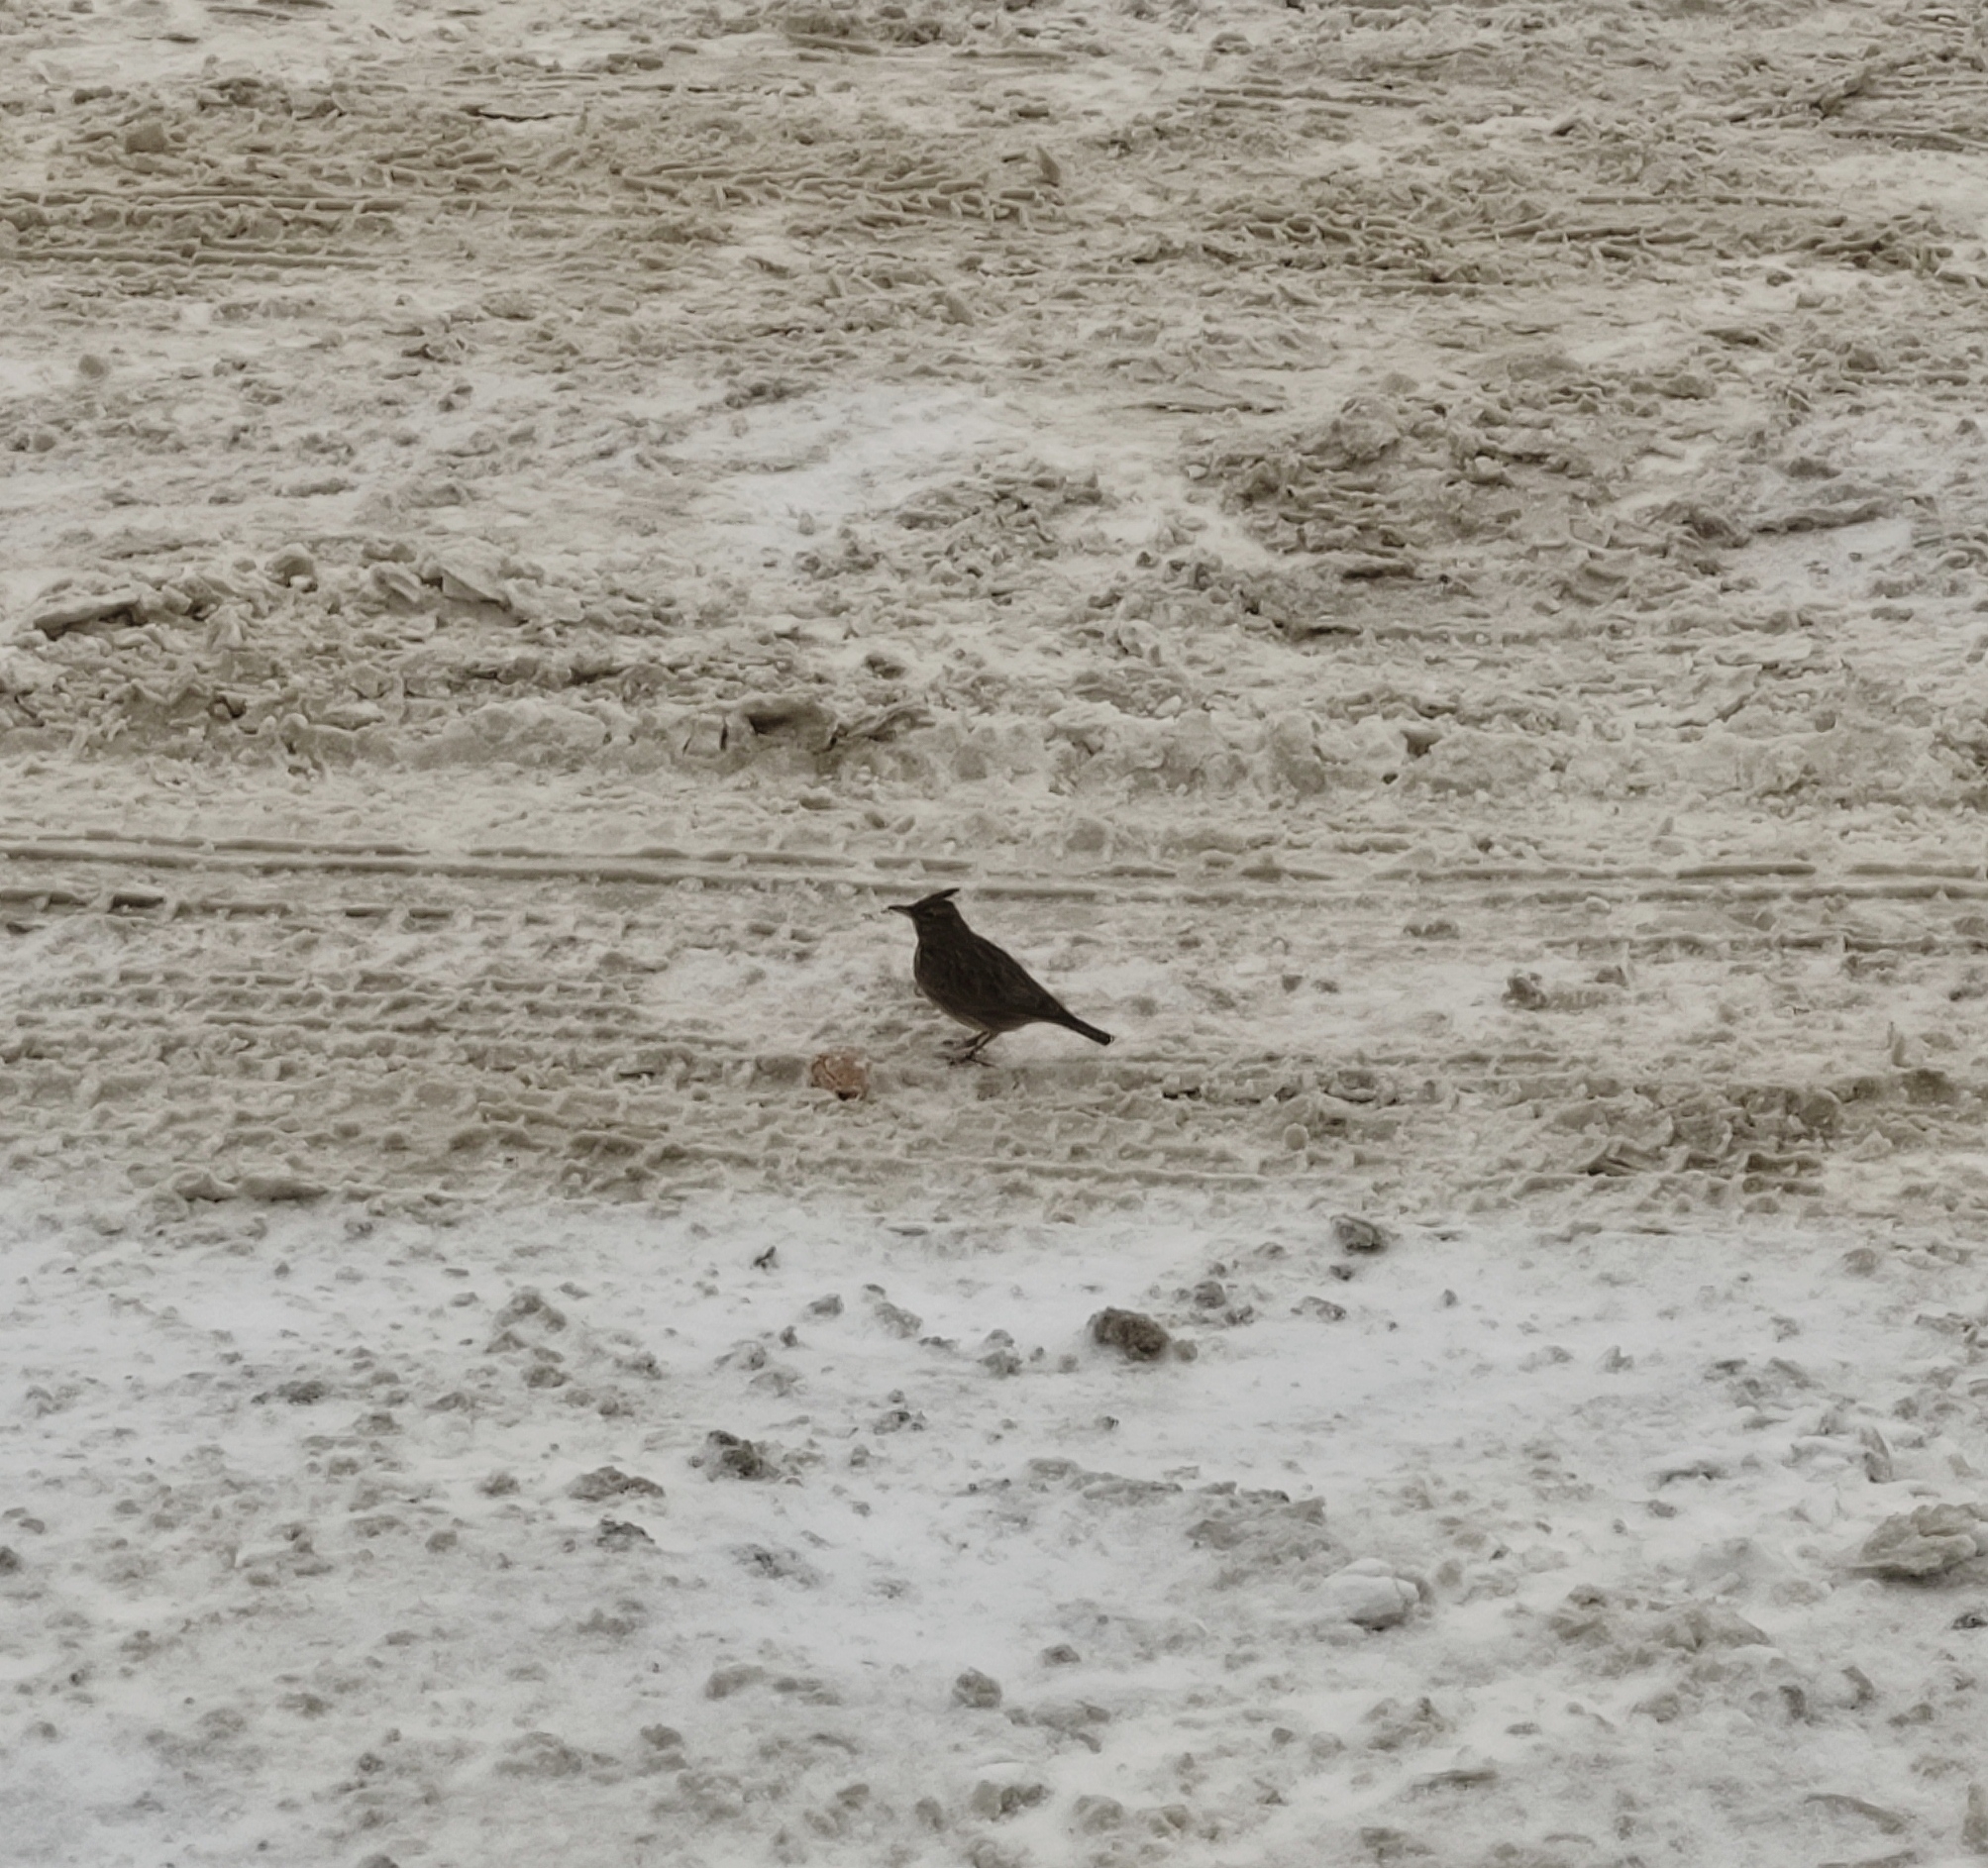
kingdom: Animalia
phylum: Chordata
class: Aves
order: Passeriformes
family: Alaudidae
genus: Galerida
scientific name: Galerida cristata
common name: Crested lark
